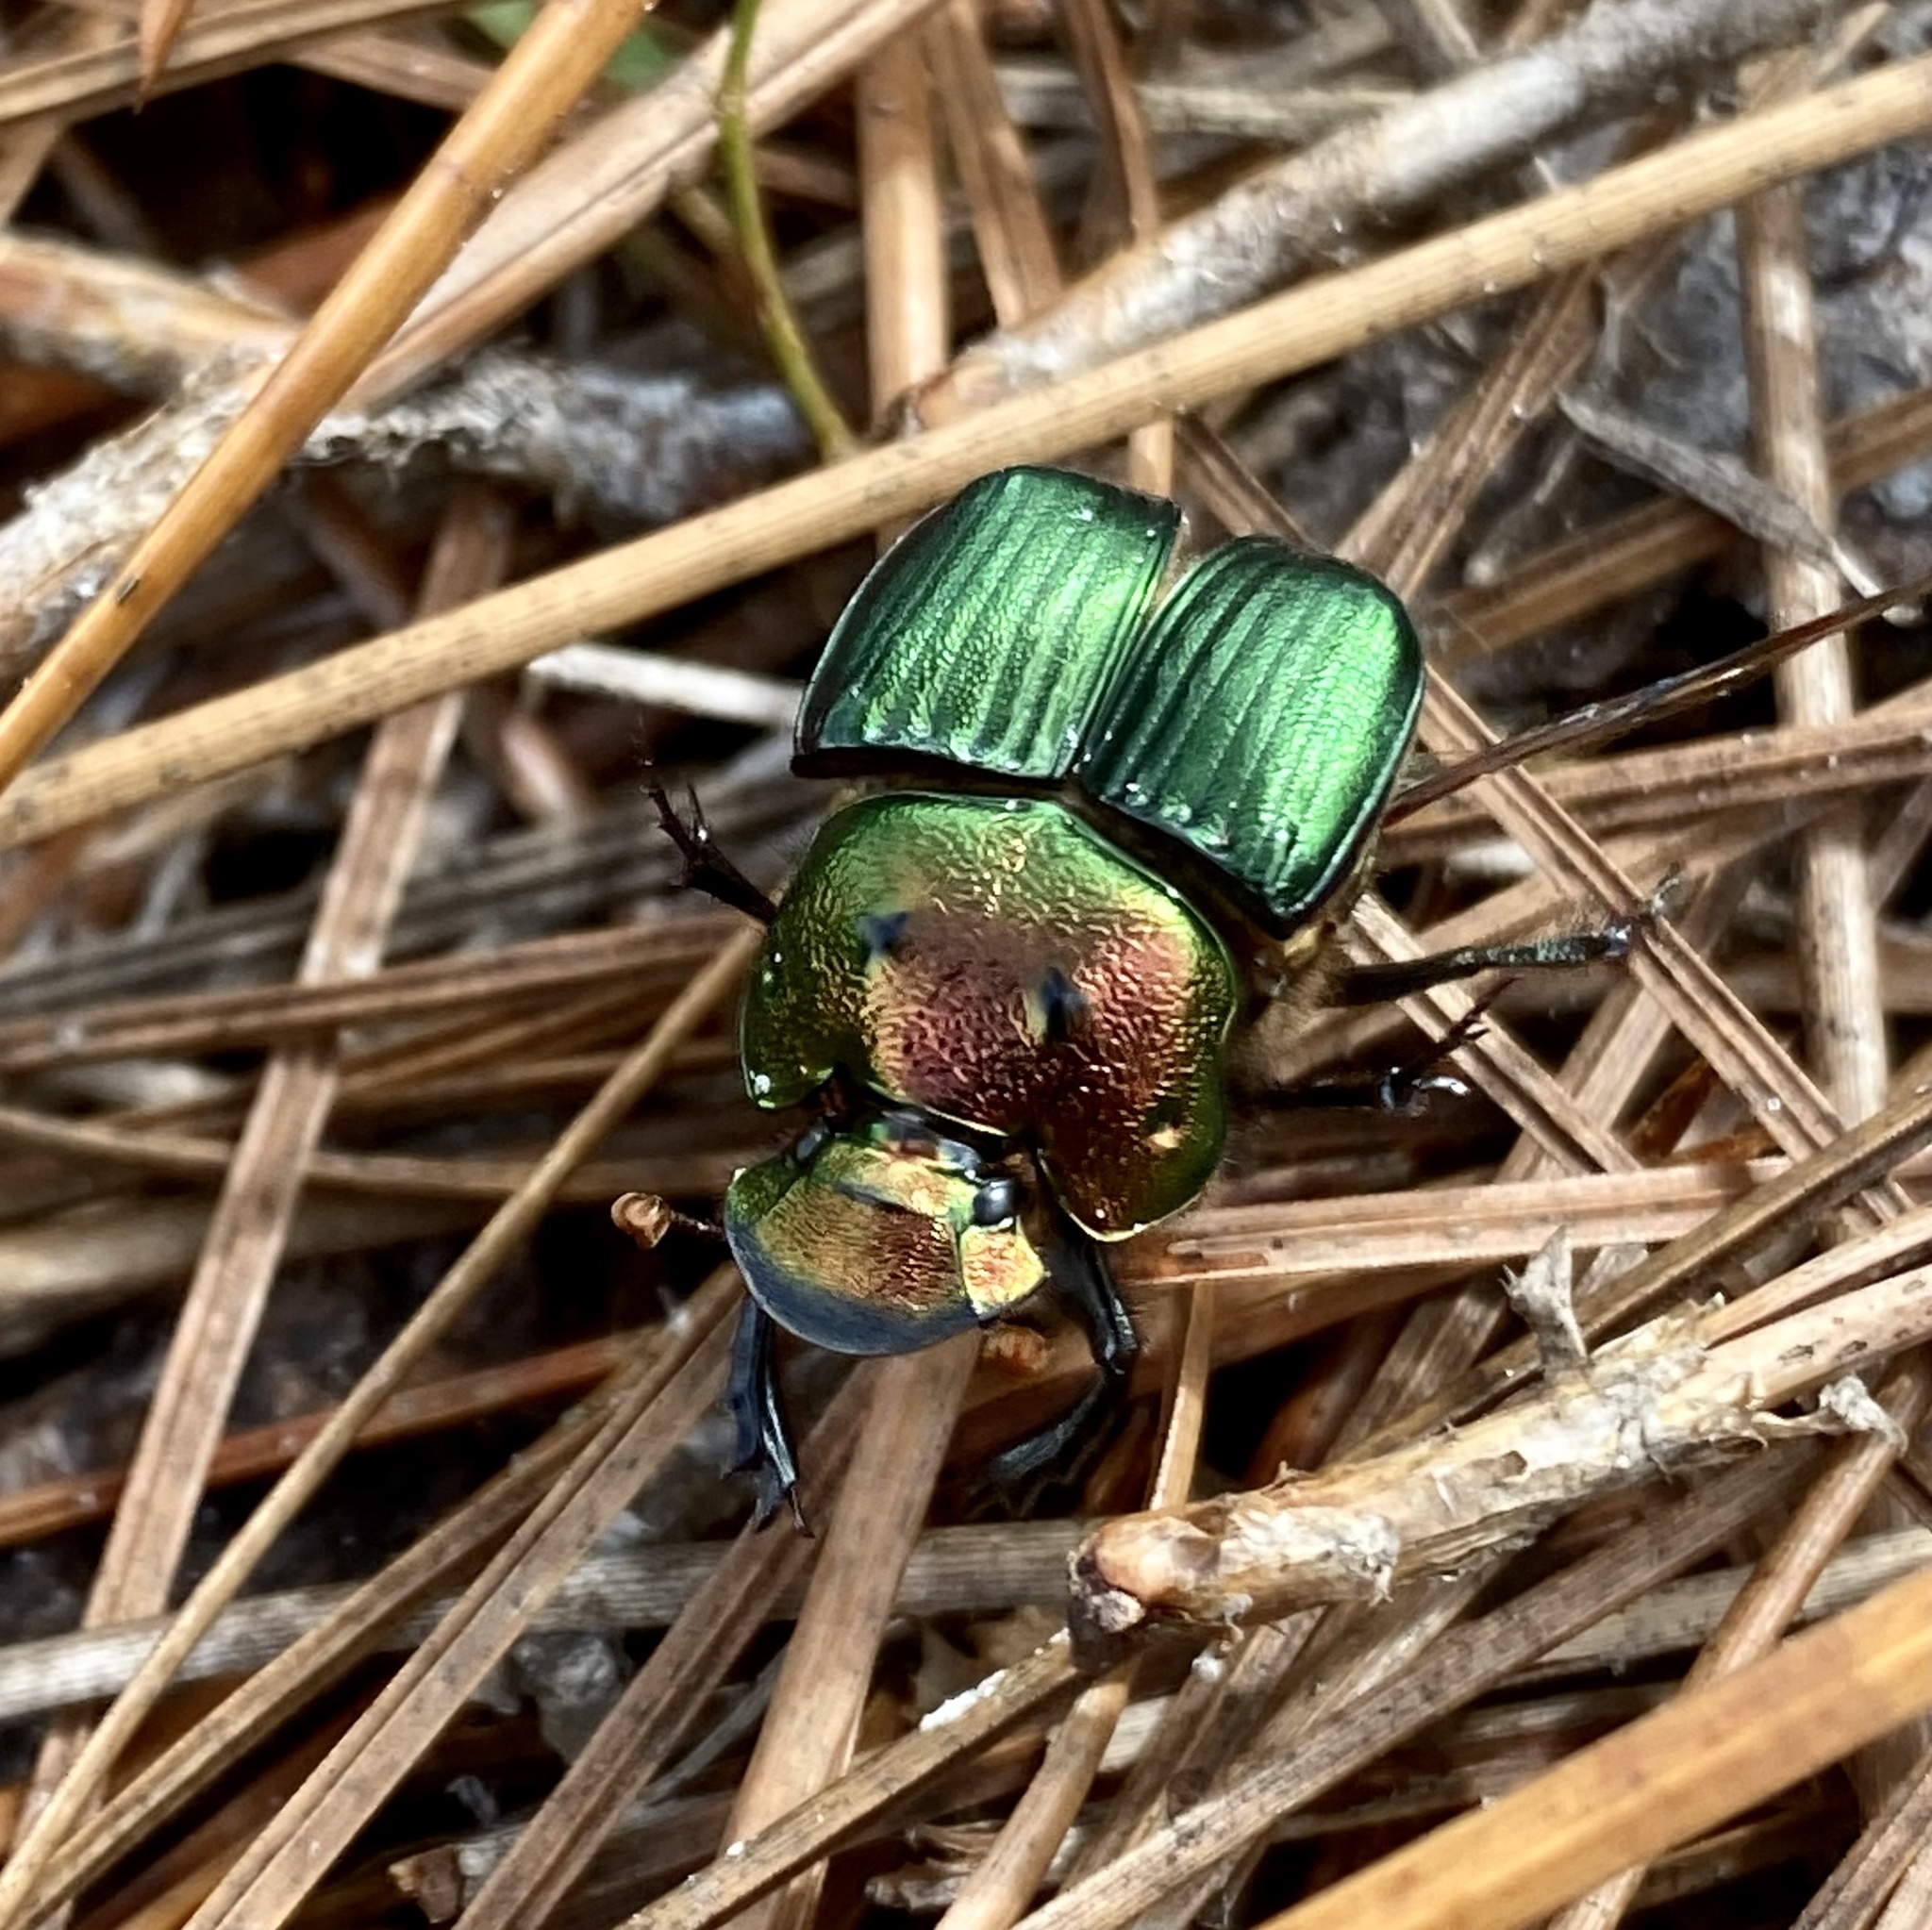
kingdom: Animalia
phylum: Arthropoda
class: Insecta
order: Coleoptera
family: Scarabaeidae
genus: Phanaeus
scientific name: Phanaeus igneus
